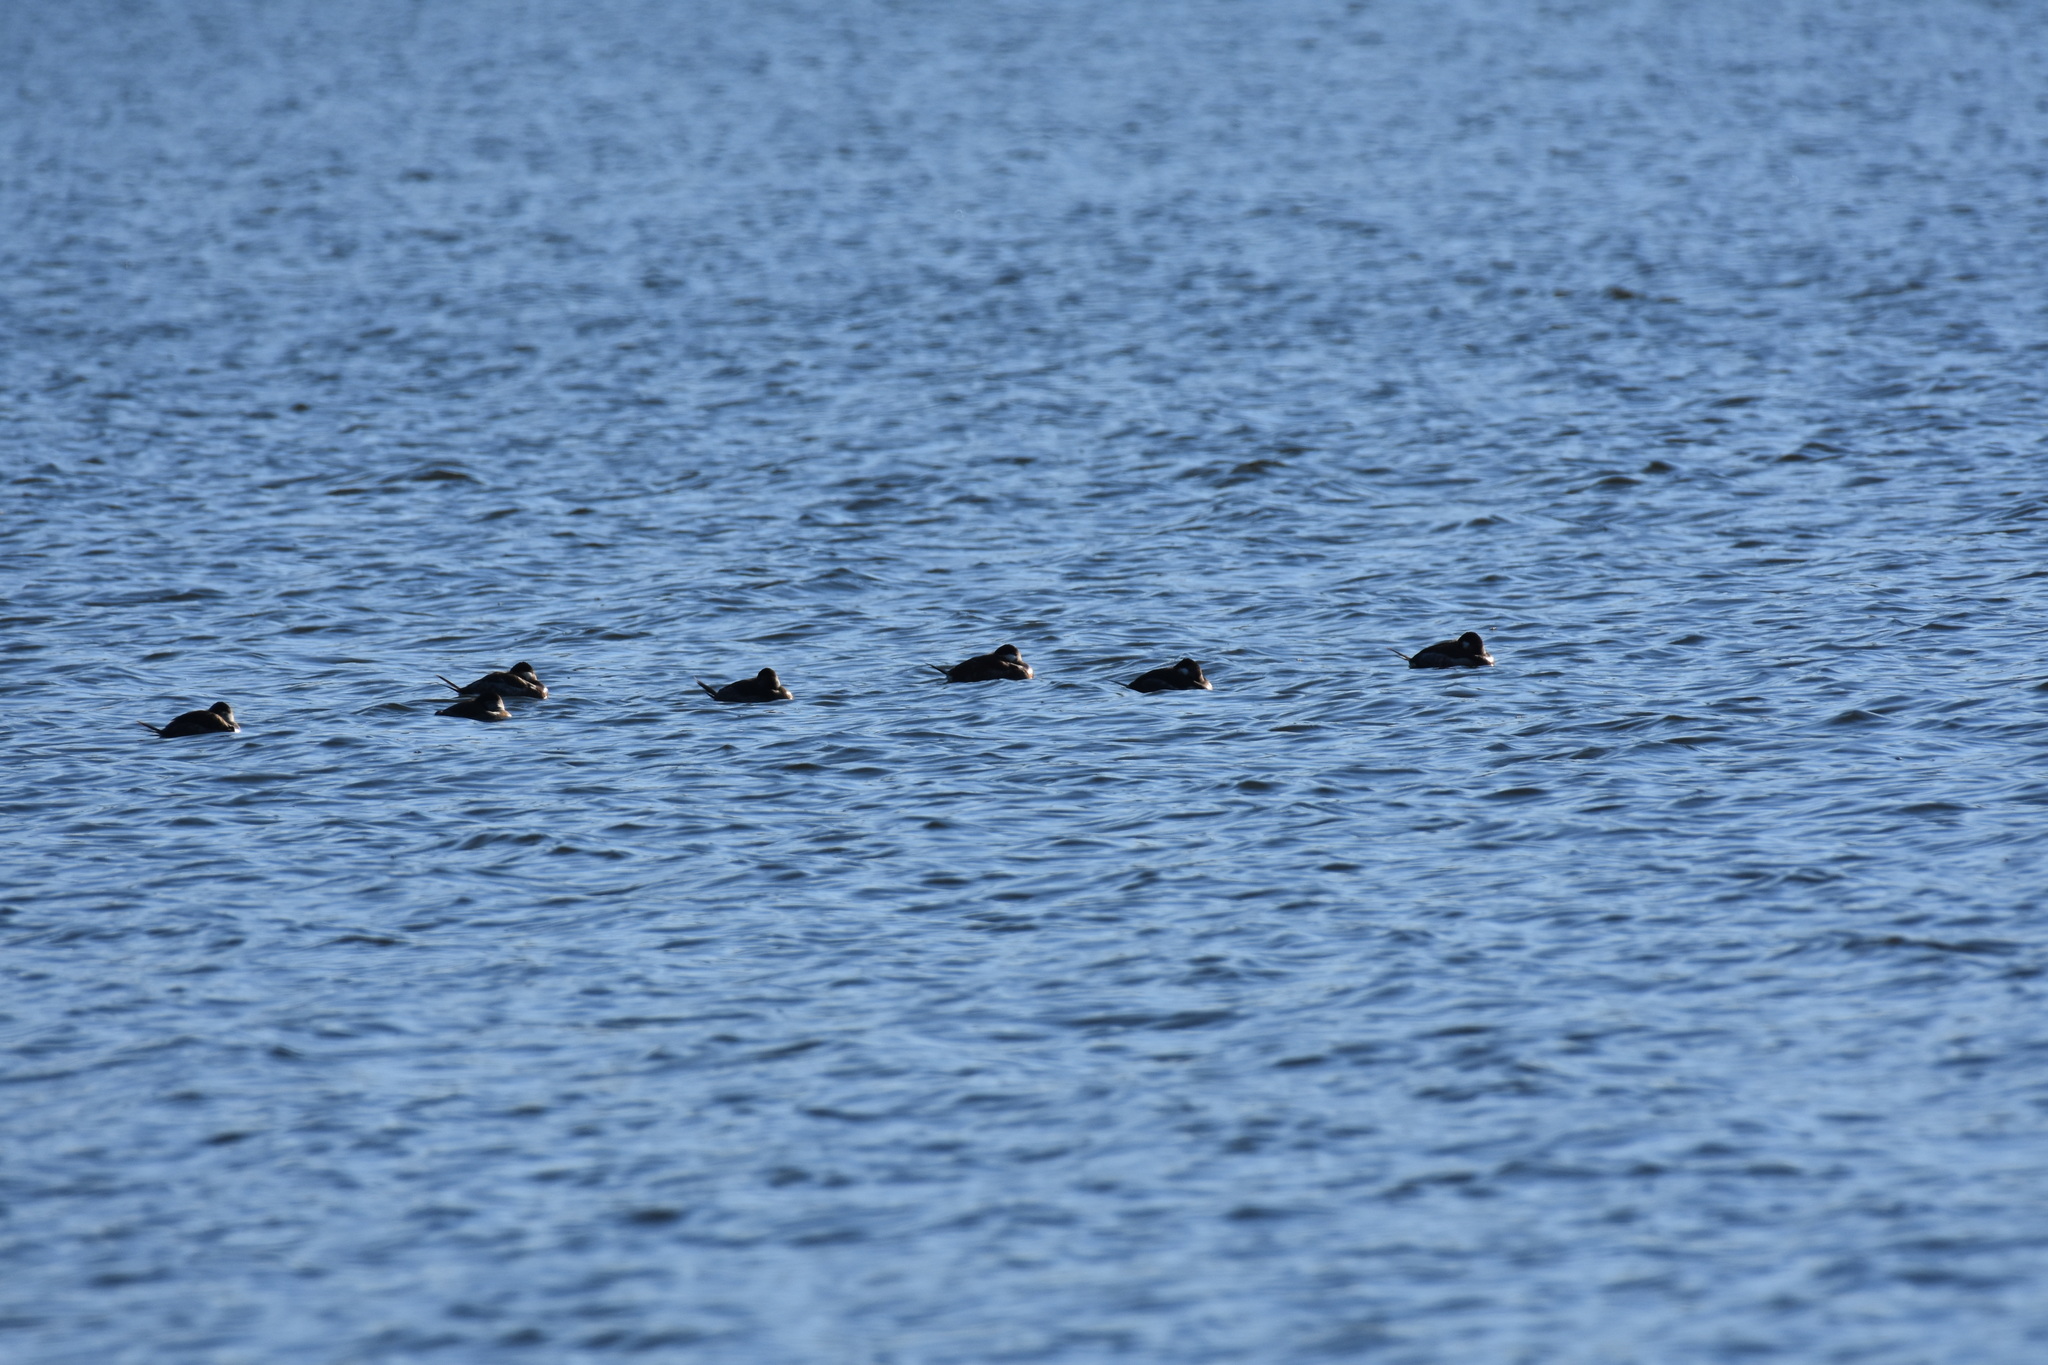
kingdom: Animalia
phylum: Chordata
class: Aves
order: Anseriformes
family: Anatidae
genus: Oxyura
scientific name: Oxyura jamaicensis
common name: Ruddy duck
